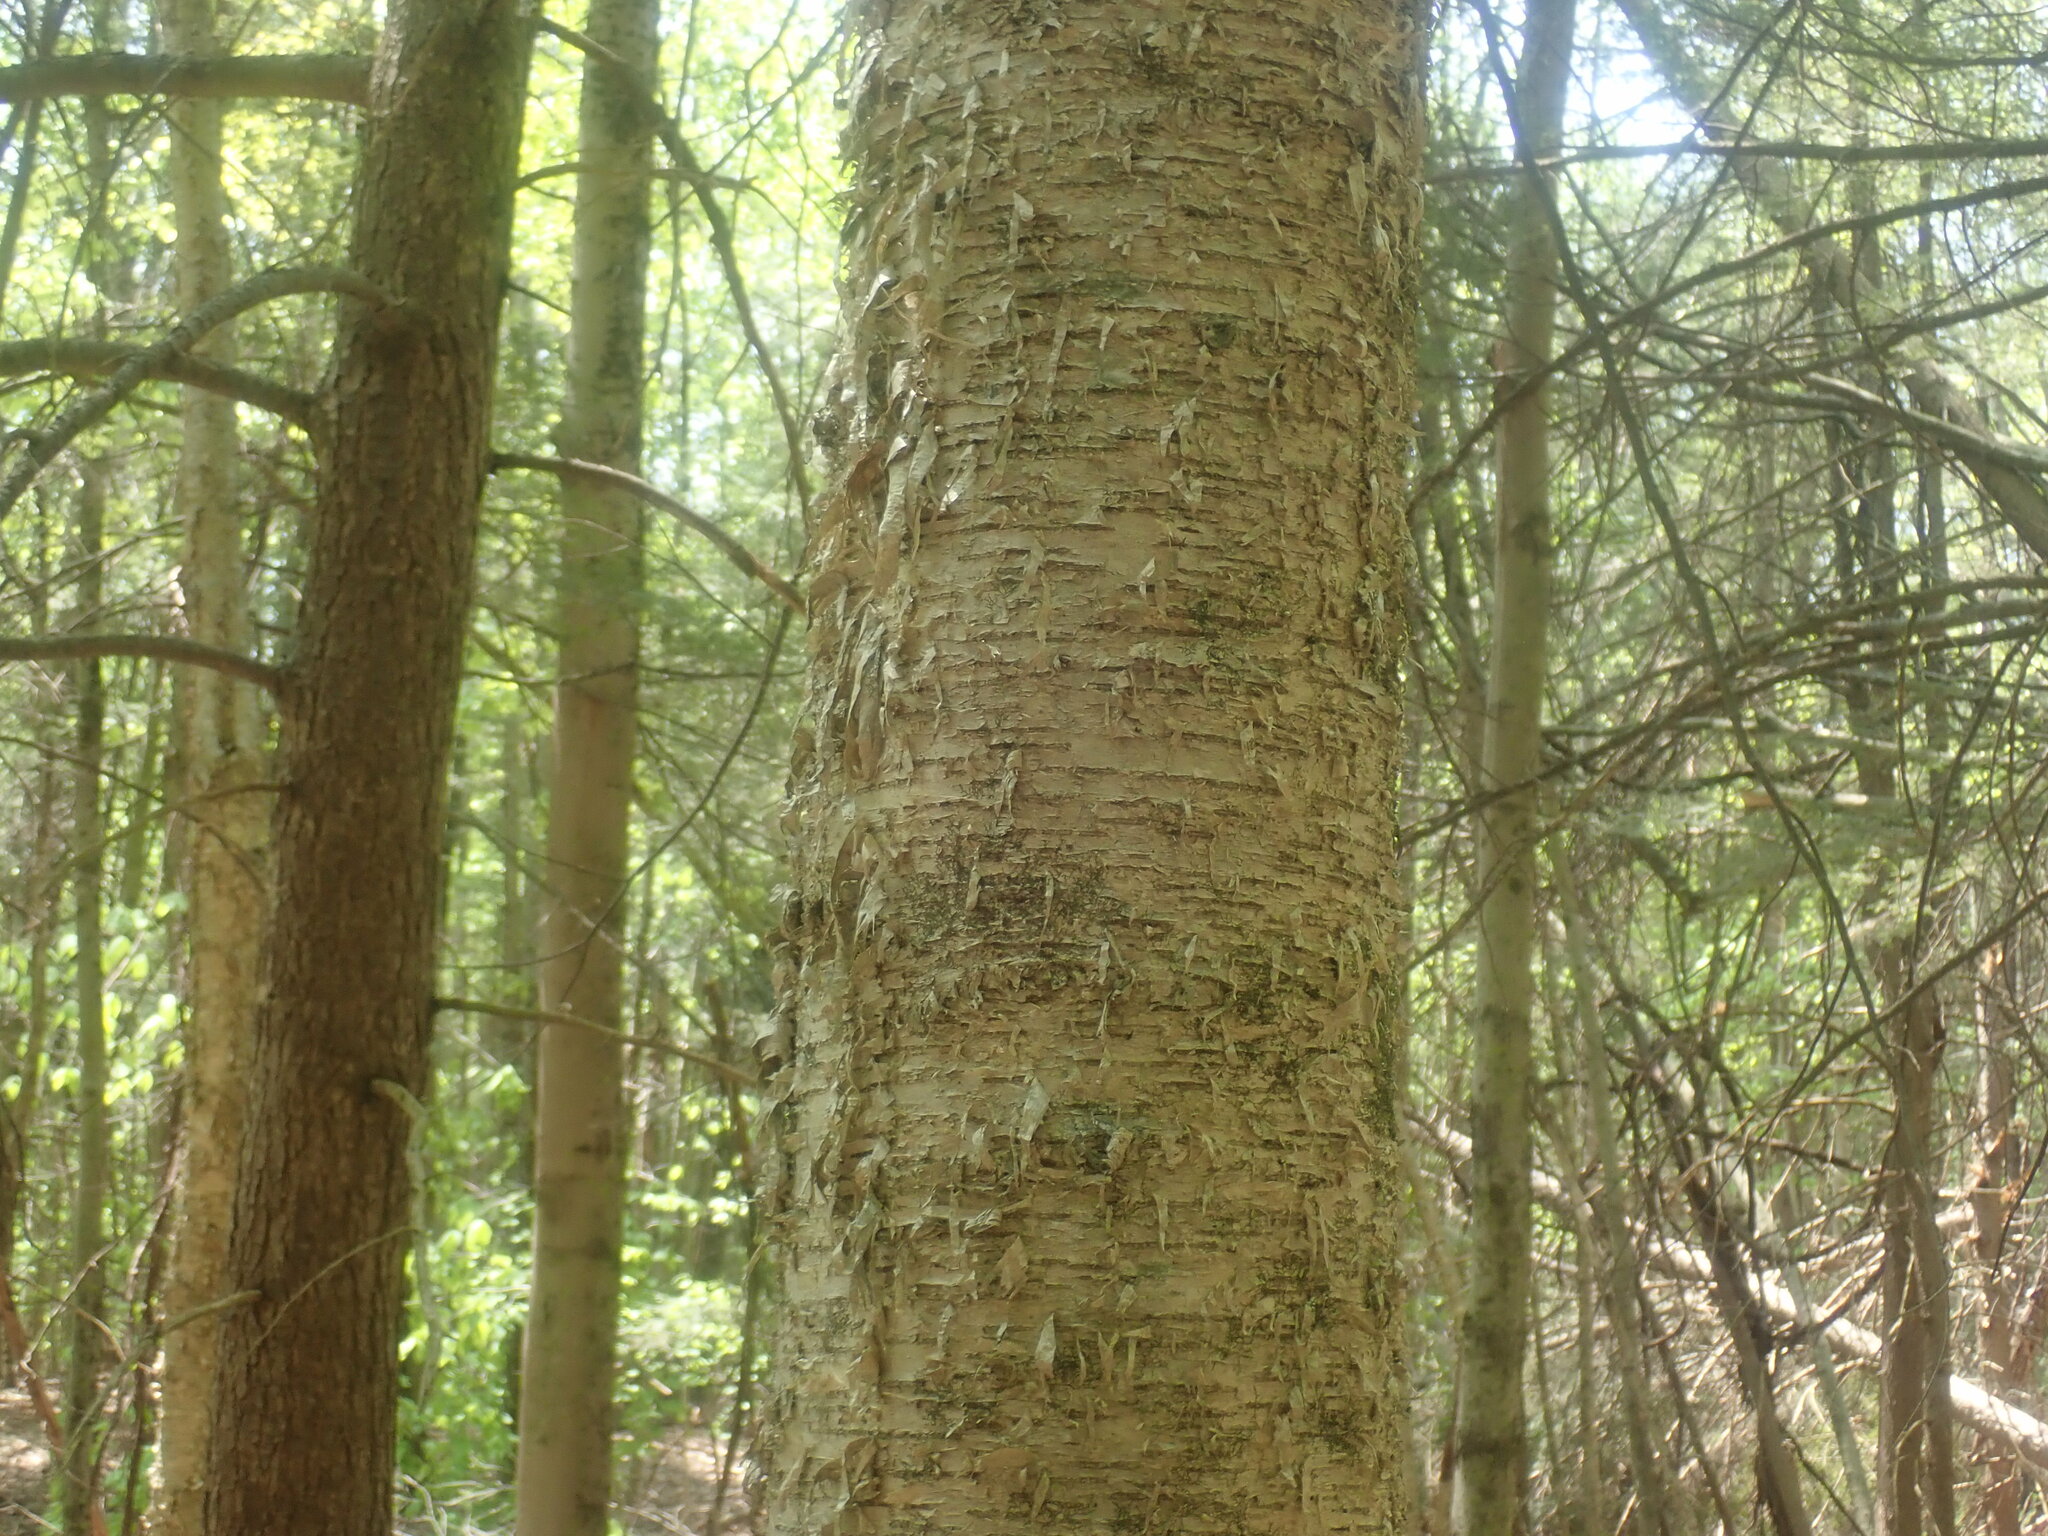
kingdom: Plantae
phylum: Tracheophyta
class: Magnoliopsida
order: Fagales
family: Betulaceae
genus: Betula
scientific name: Betula alleghaniensis
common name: Yellow birch
